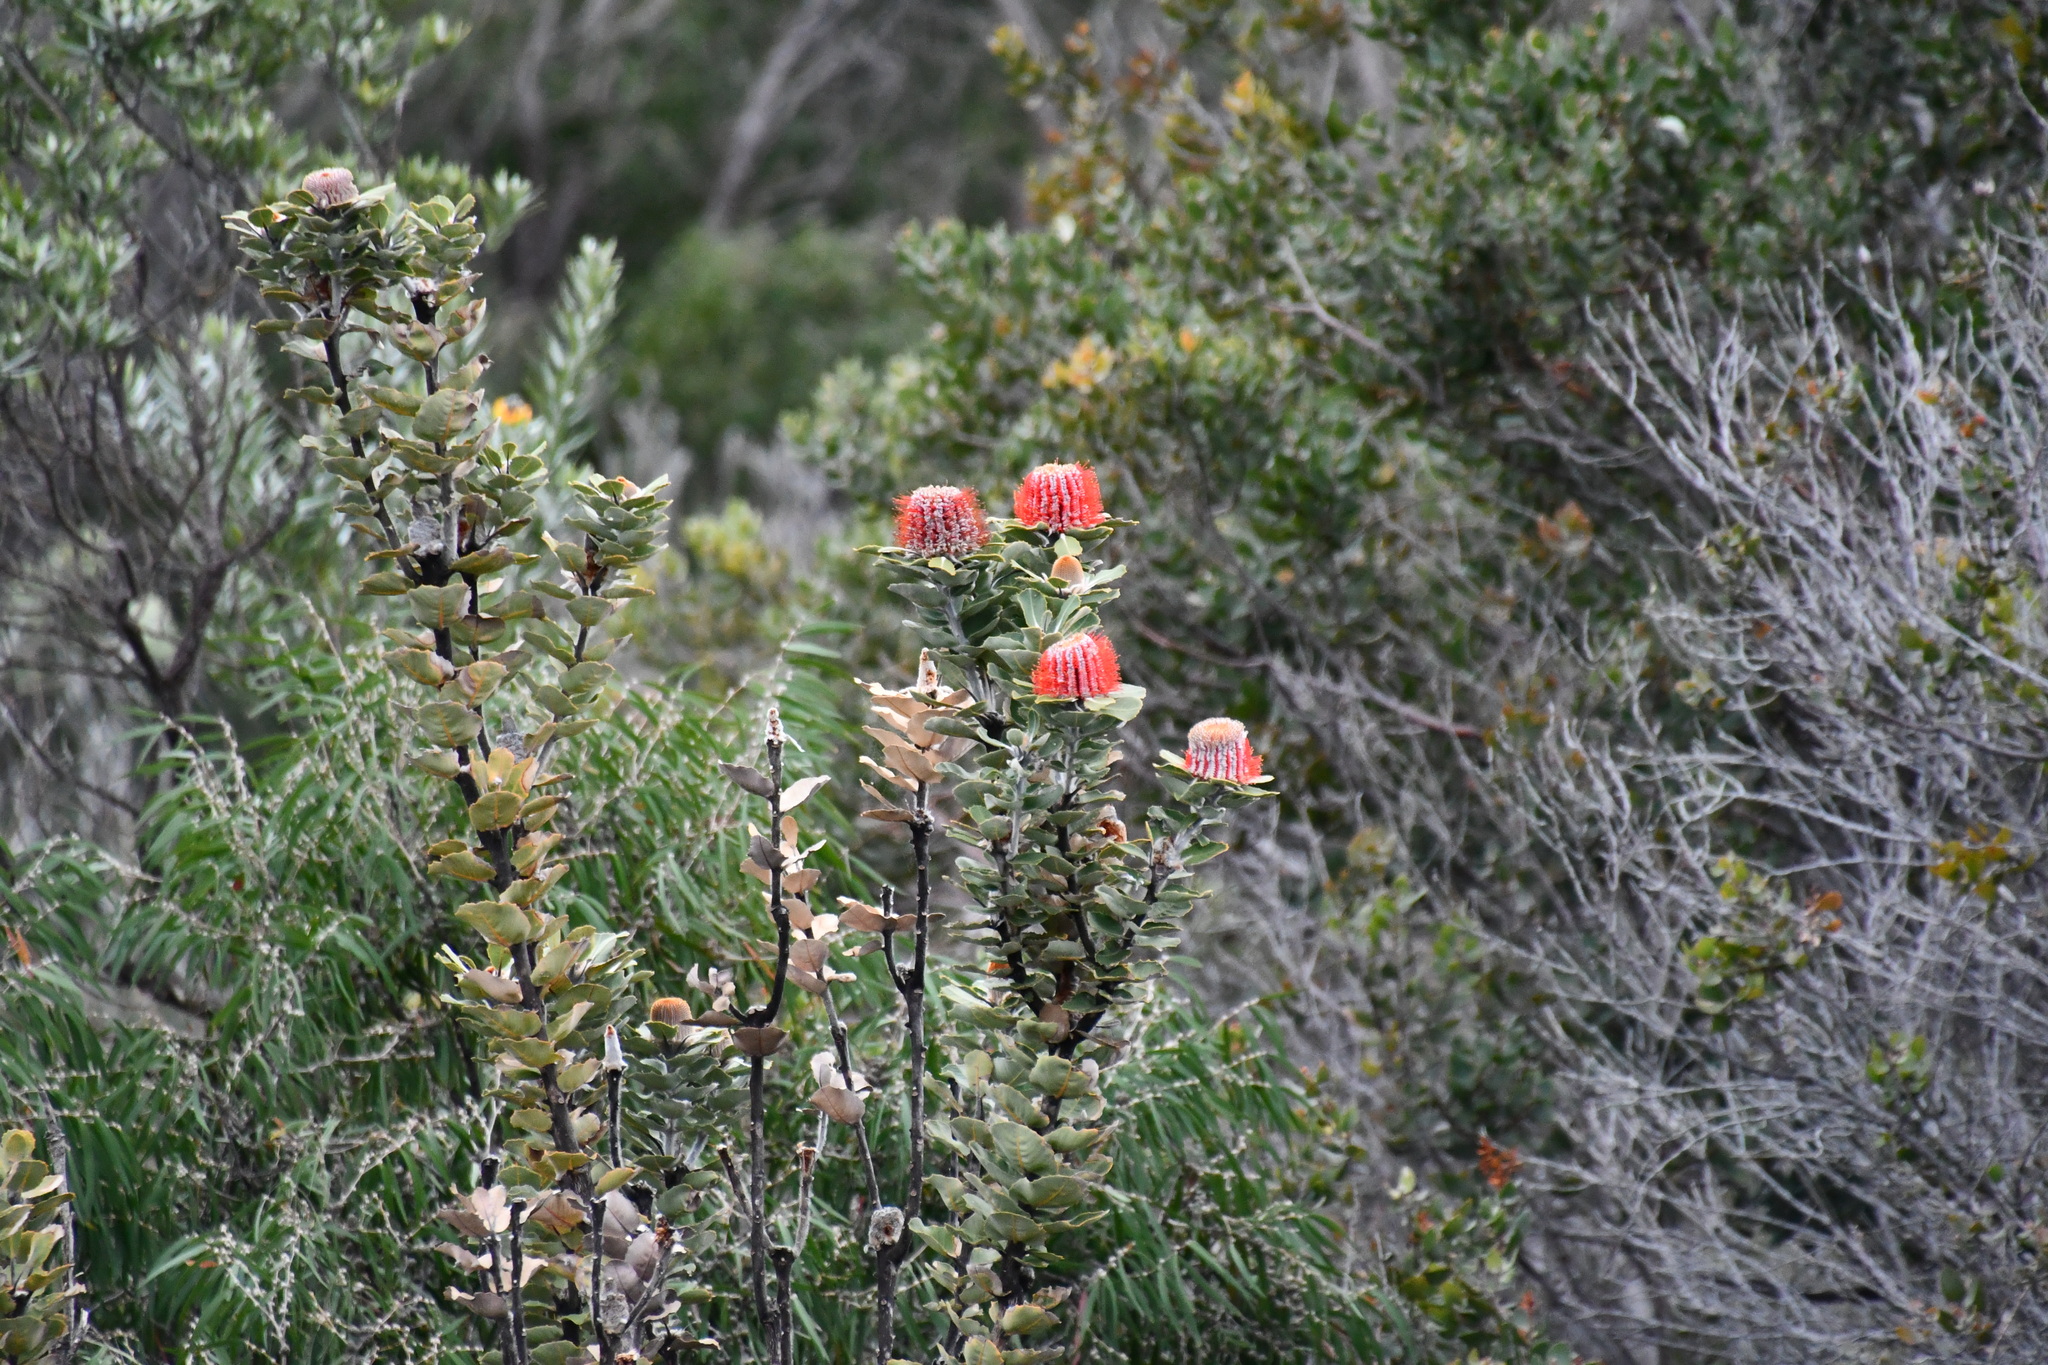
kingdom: Plantae
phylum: Tracheophyta
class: Magnoliopsida
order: Proteales
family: Proteaceae
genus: Banksia
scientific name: Banksia coccinea
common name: Scarlet banksia
